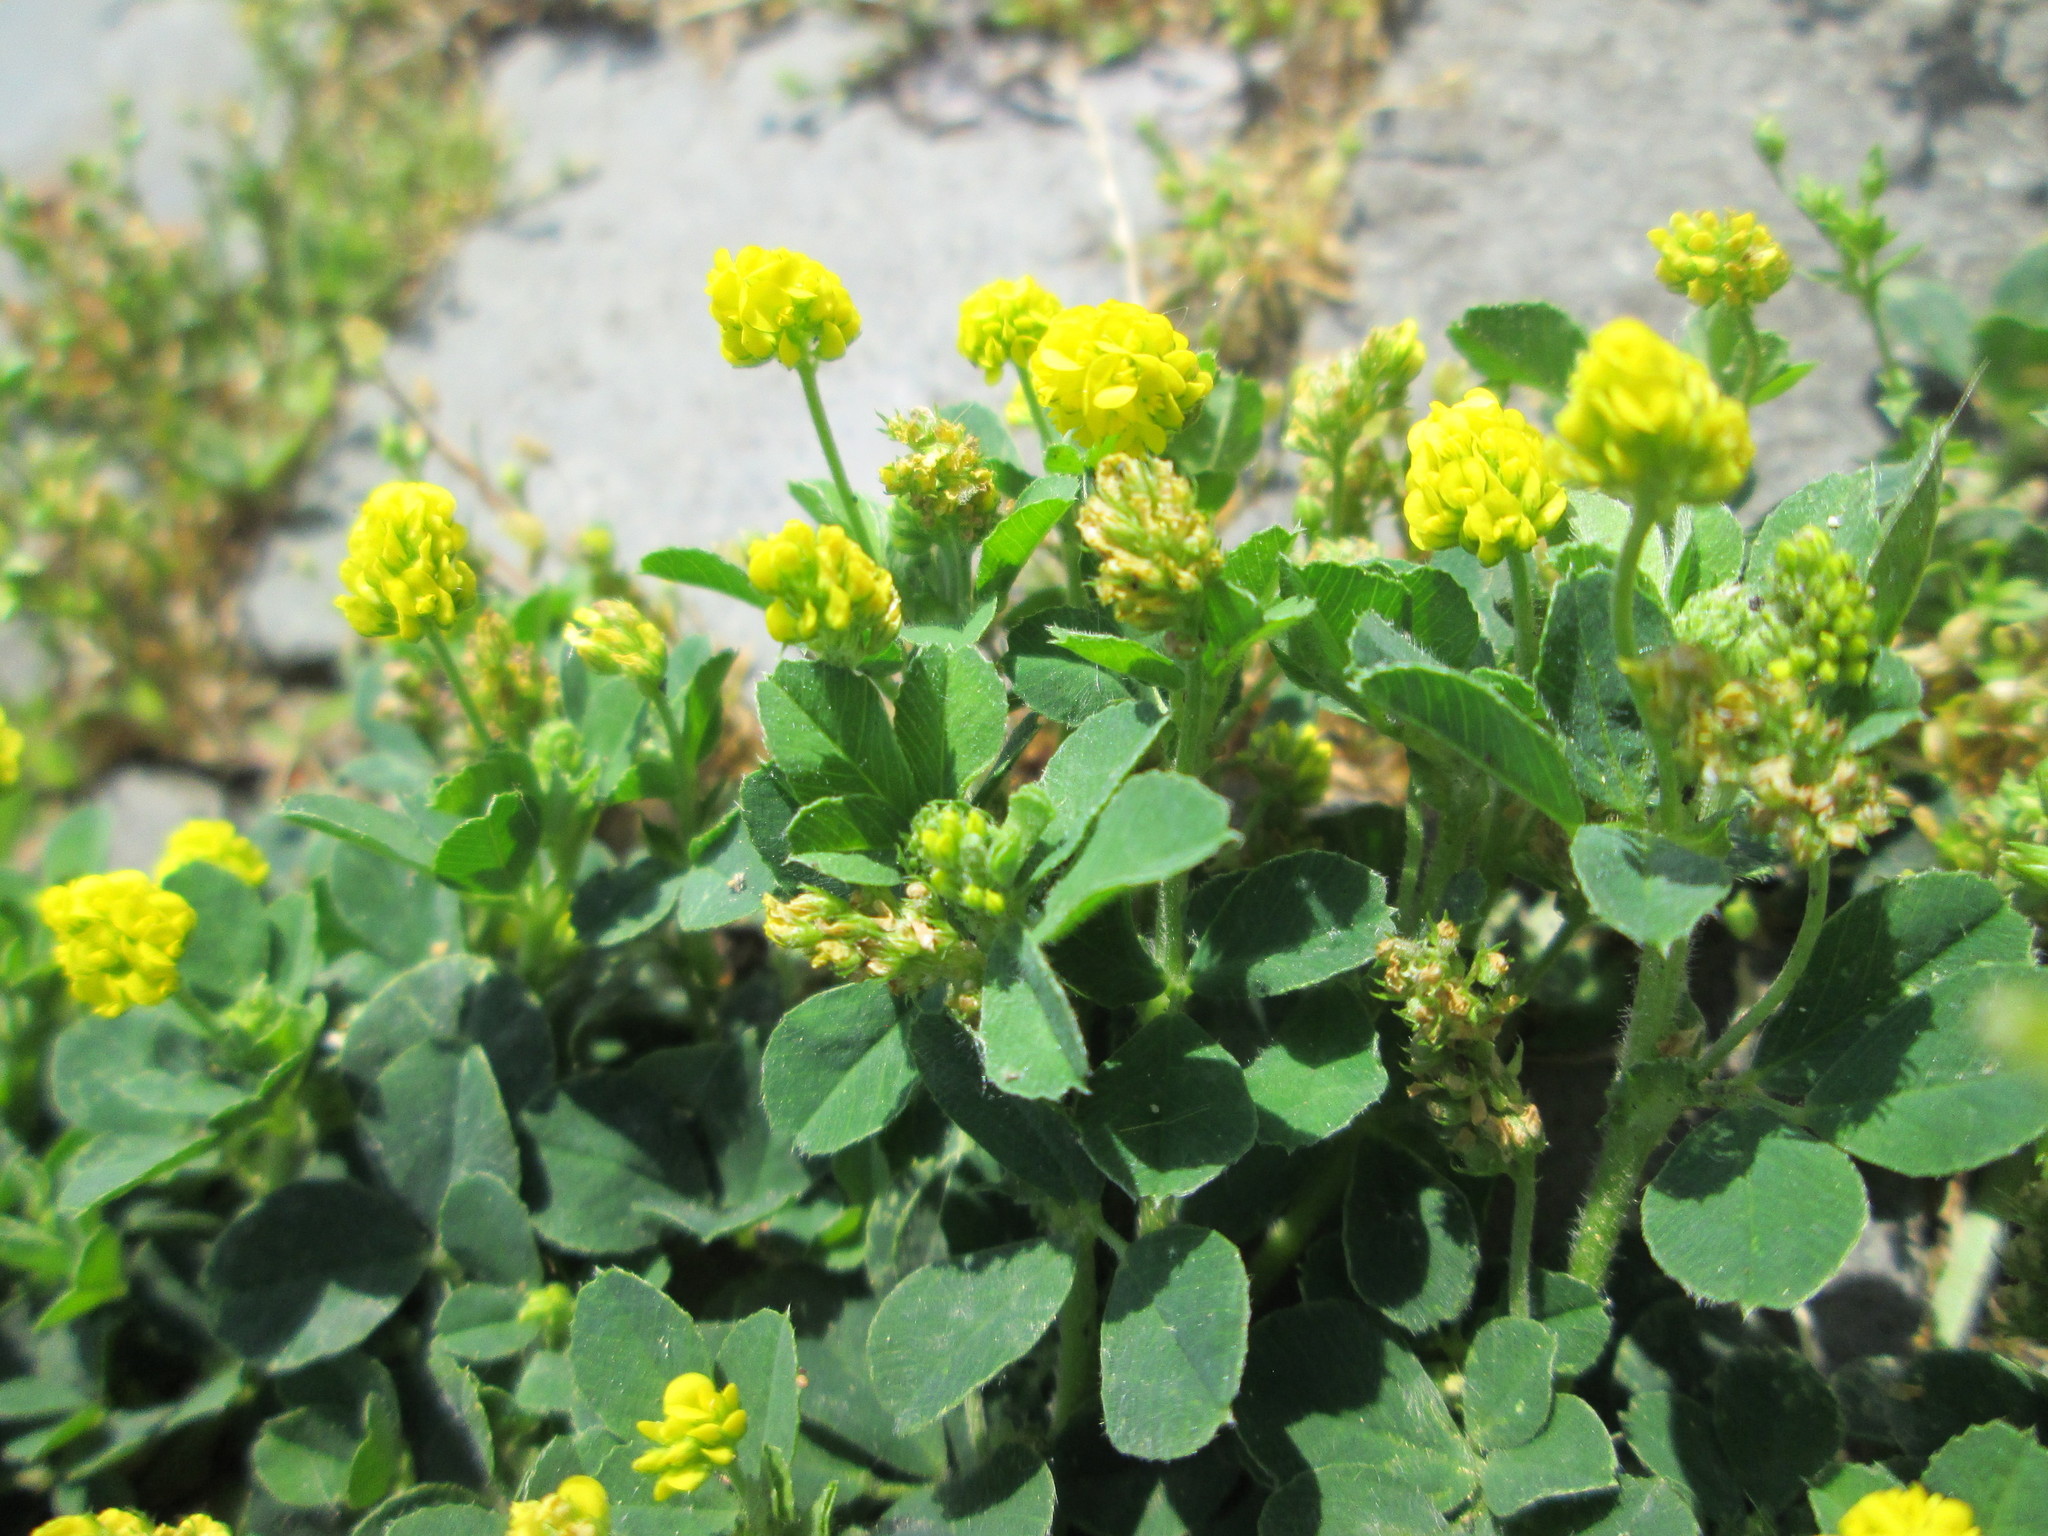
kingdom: Plantae
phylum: Tracheophyta
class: Magnoliopsida
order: Fabales
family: Fabaceae
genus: Medicago
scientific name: Medicago lupulina
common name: Black medick
